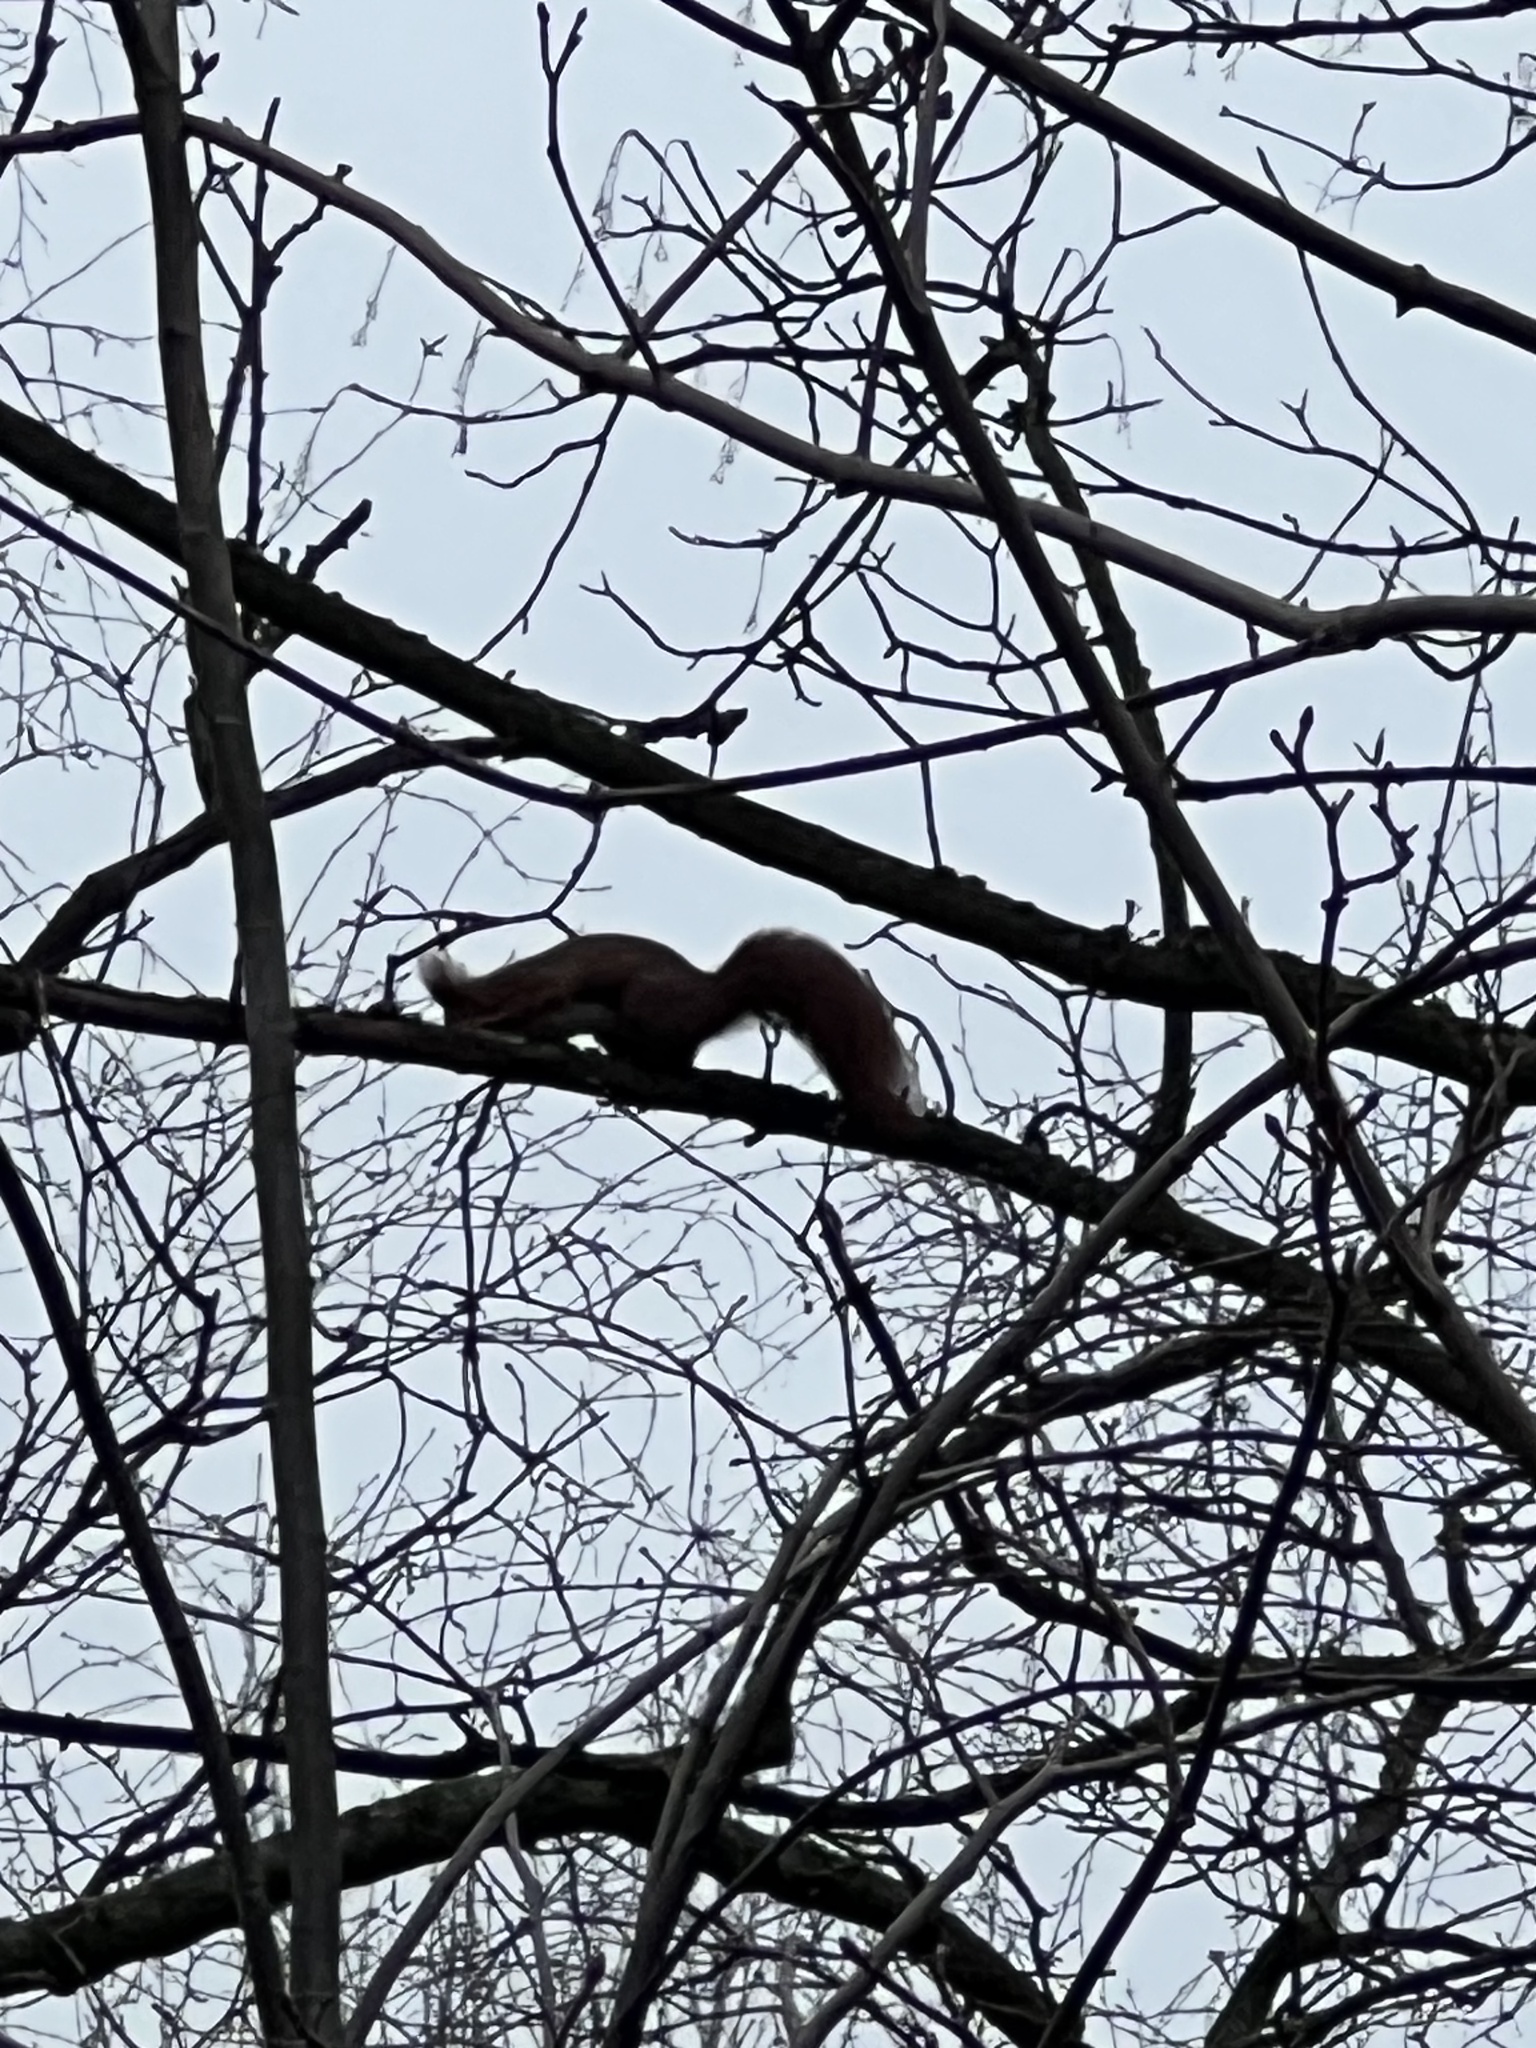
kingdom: Animalia
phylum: Chordata
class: Mammalia
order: Rodentia
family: Sciuridae
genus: Sciurus
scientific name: Sciurus vulgaris
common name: Eurasian red squirrel
